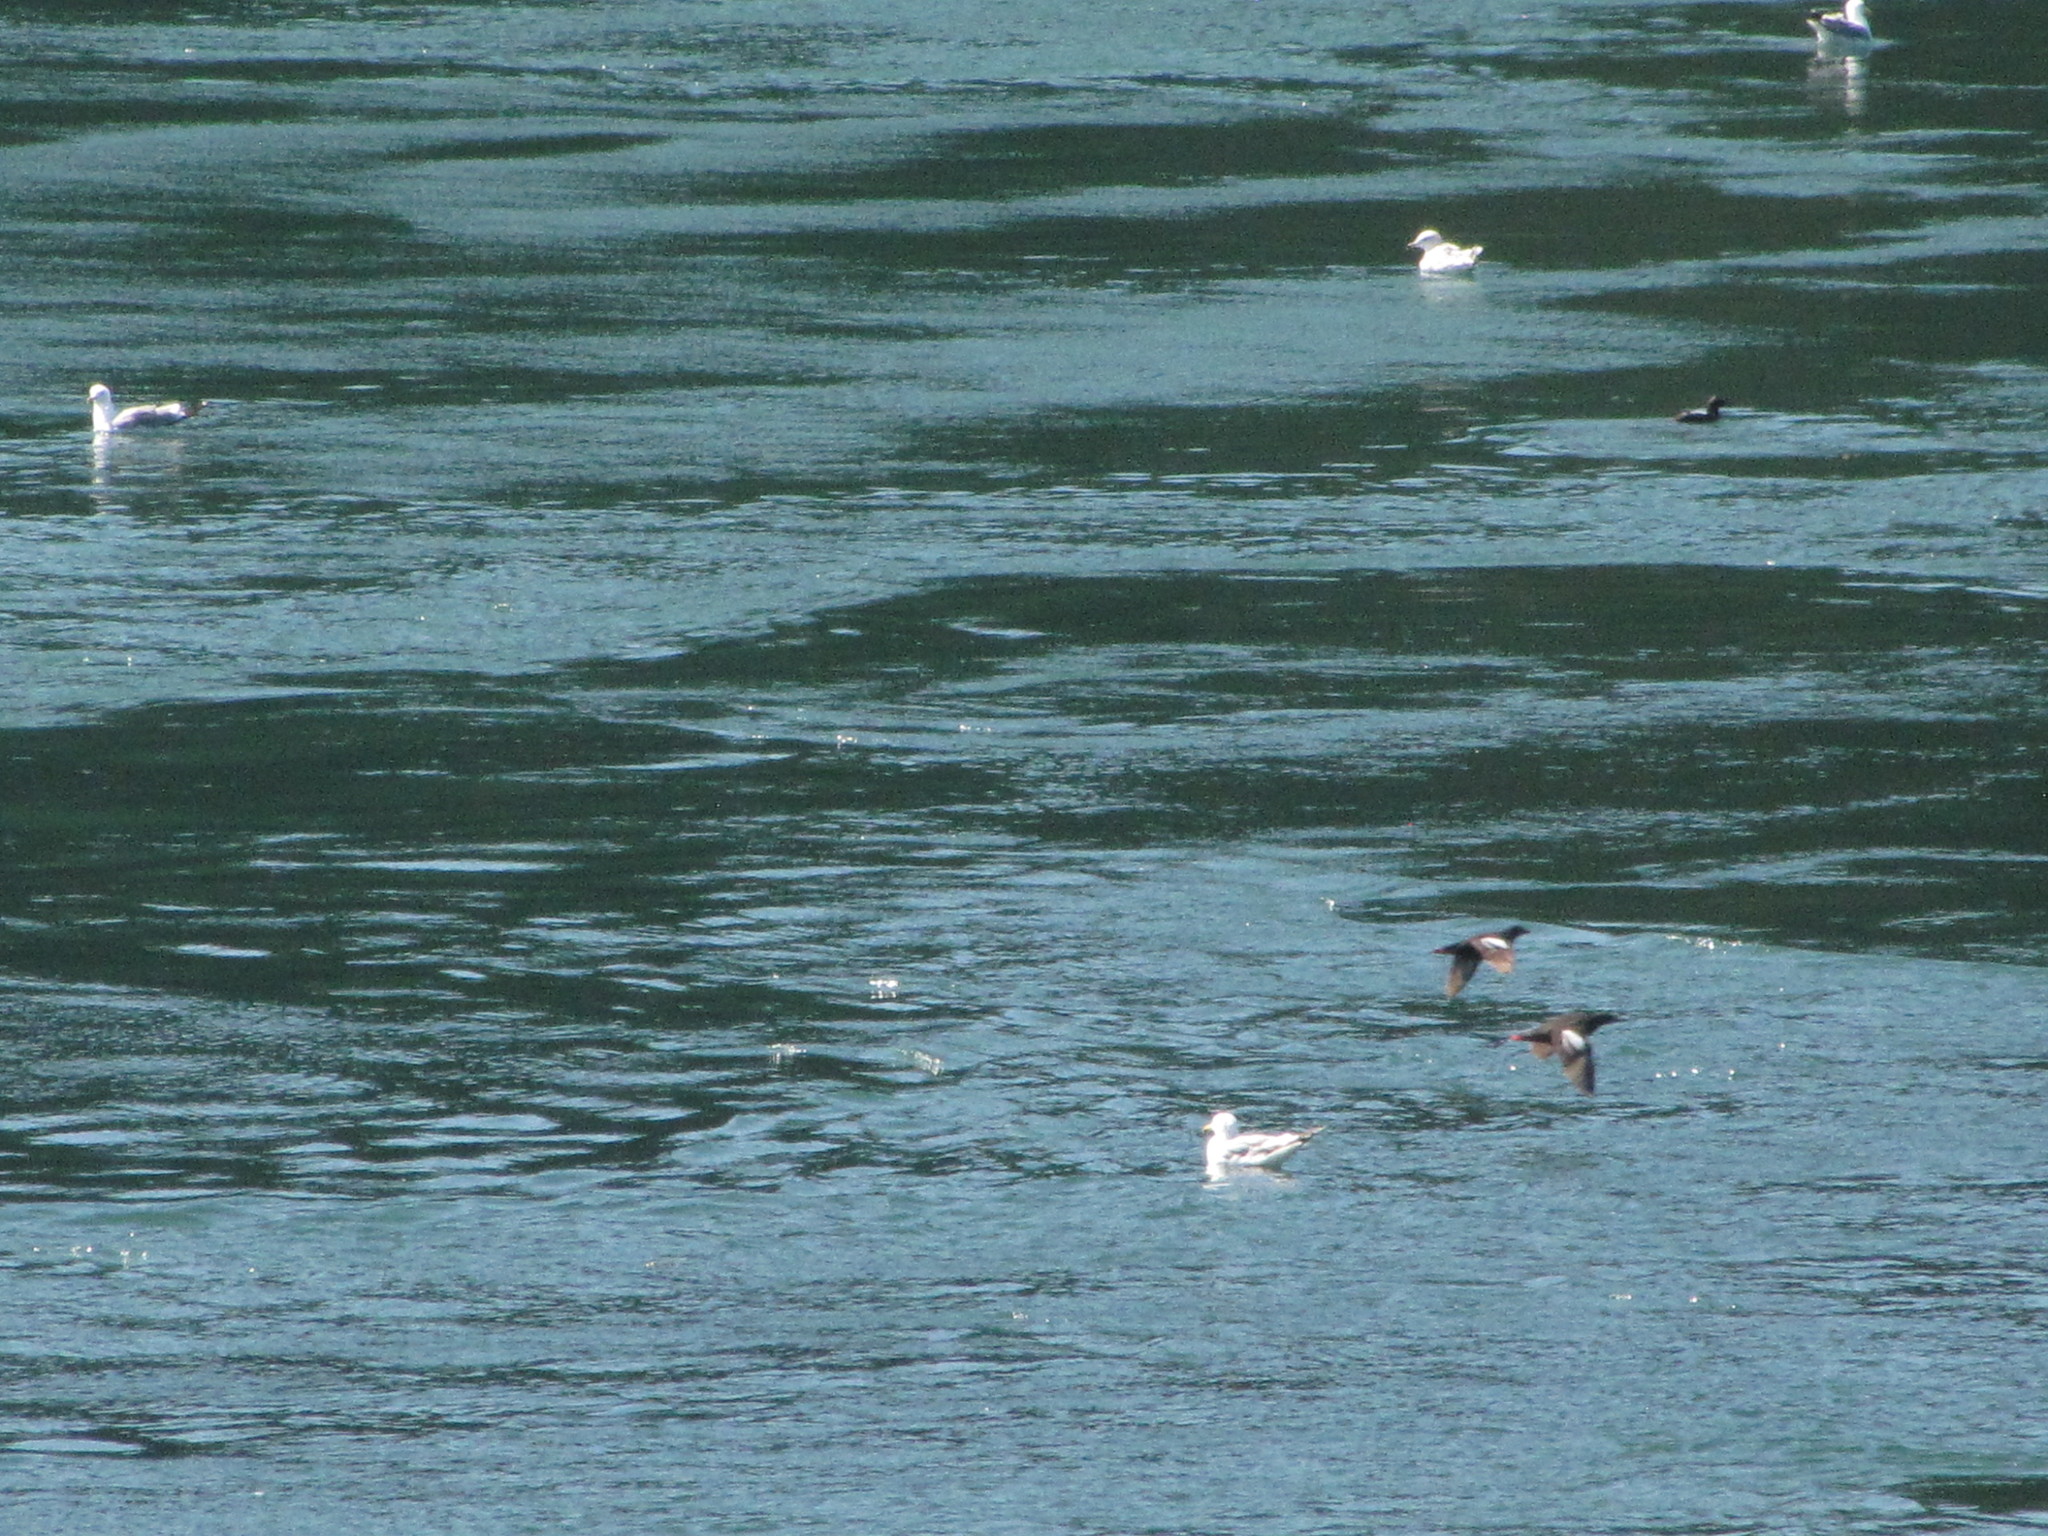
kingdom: Animalia
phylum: Chordata
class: Aves
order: Charadriiformes
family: Alcidae
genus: Cepphus
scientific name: Cepphus columba
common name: Pigeon guillemot
